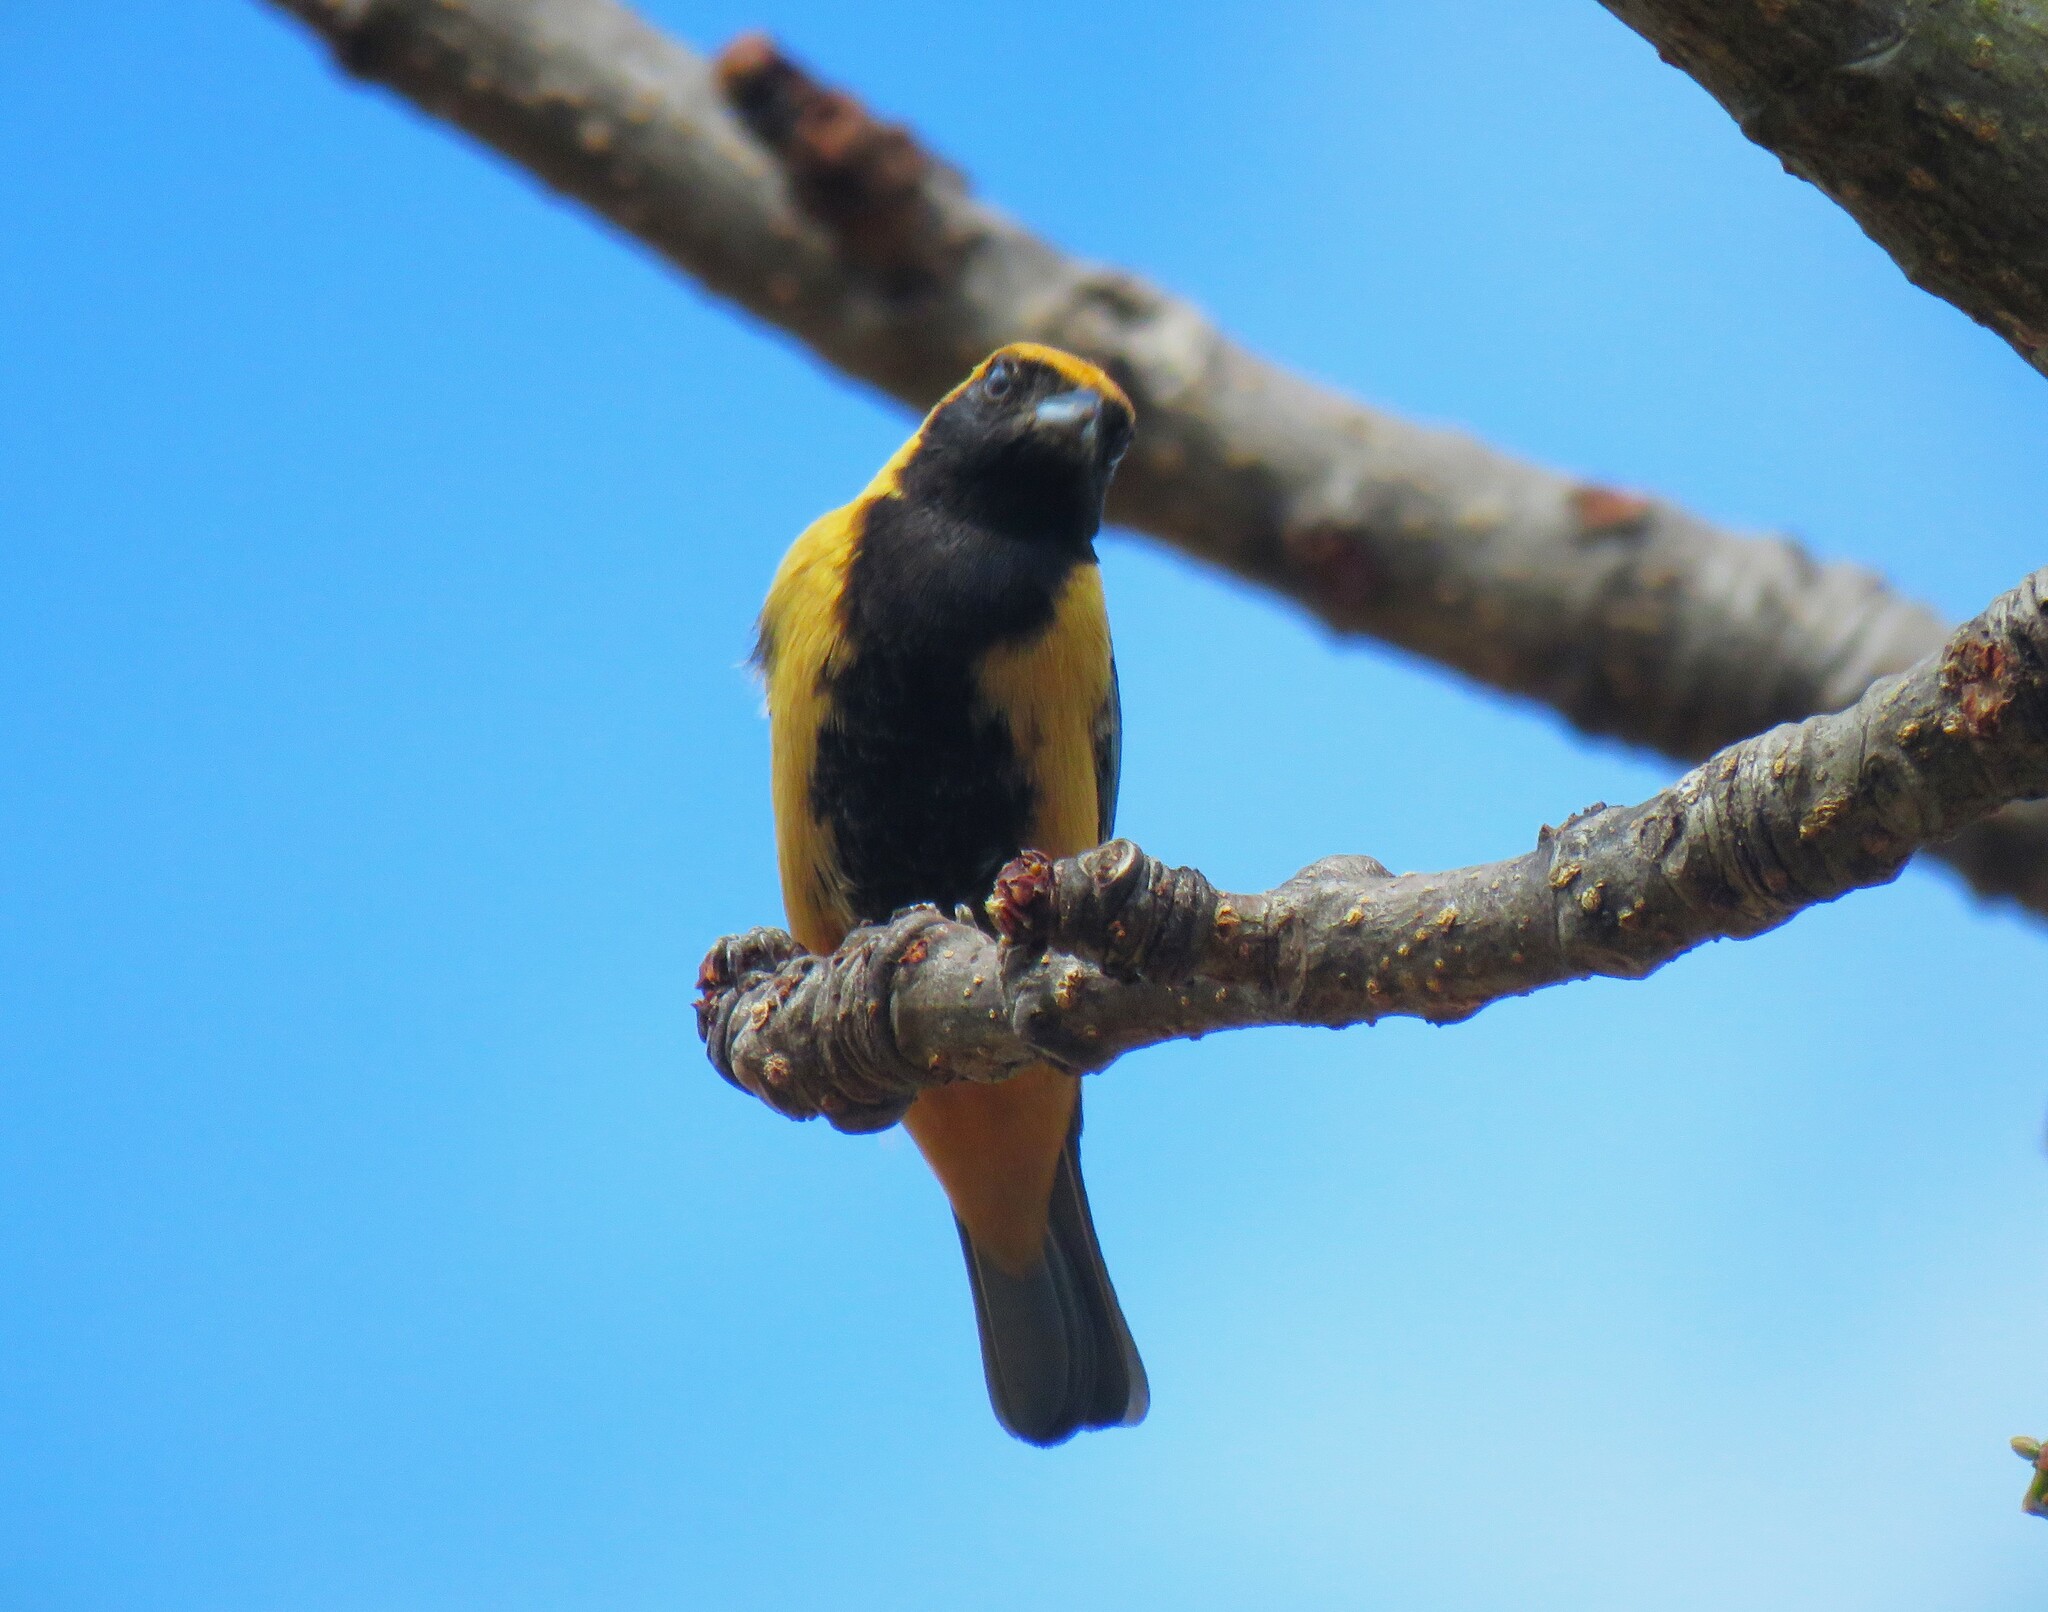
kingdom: Animalia
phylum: Chordata
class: Aves
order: Passeriformes
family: Thraupidae
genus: Stilpnia
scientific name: Stilpnia cayana
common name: Burnished-buff tanager
